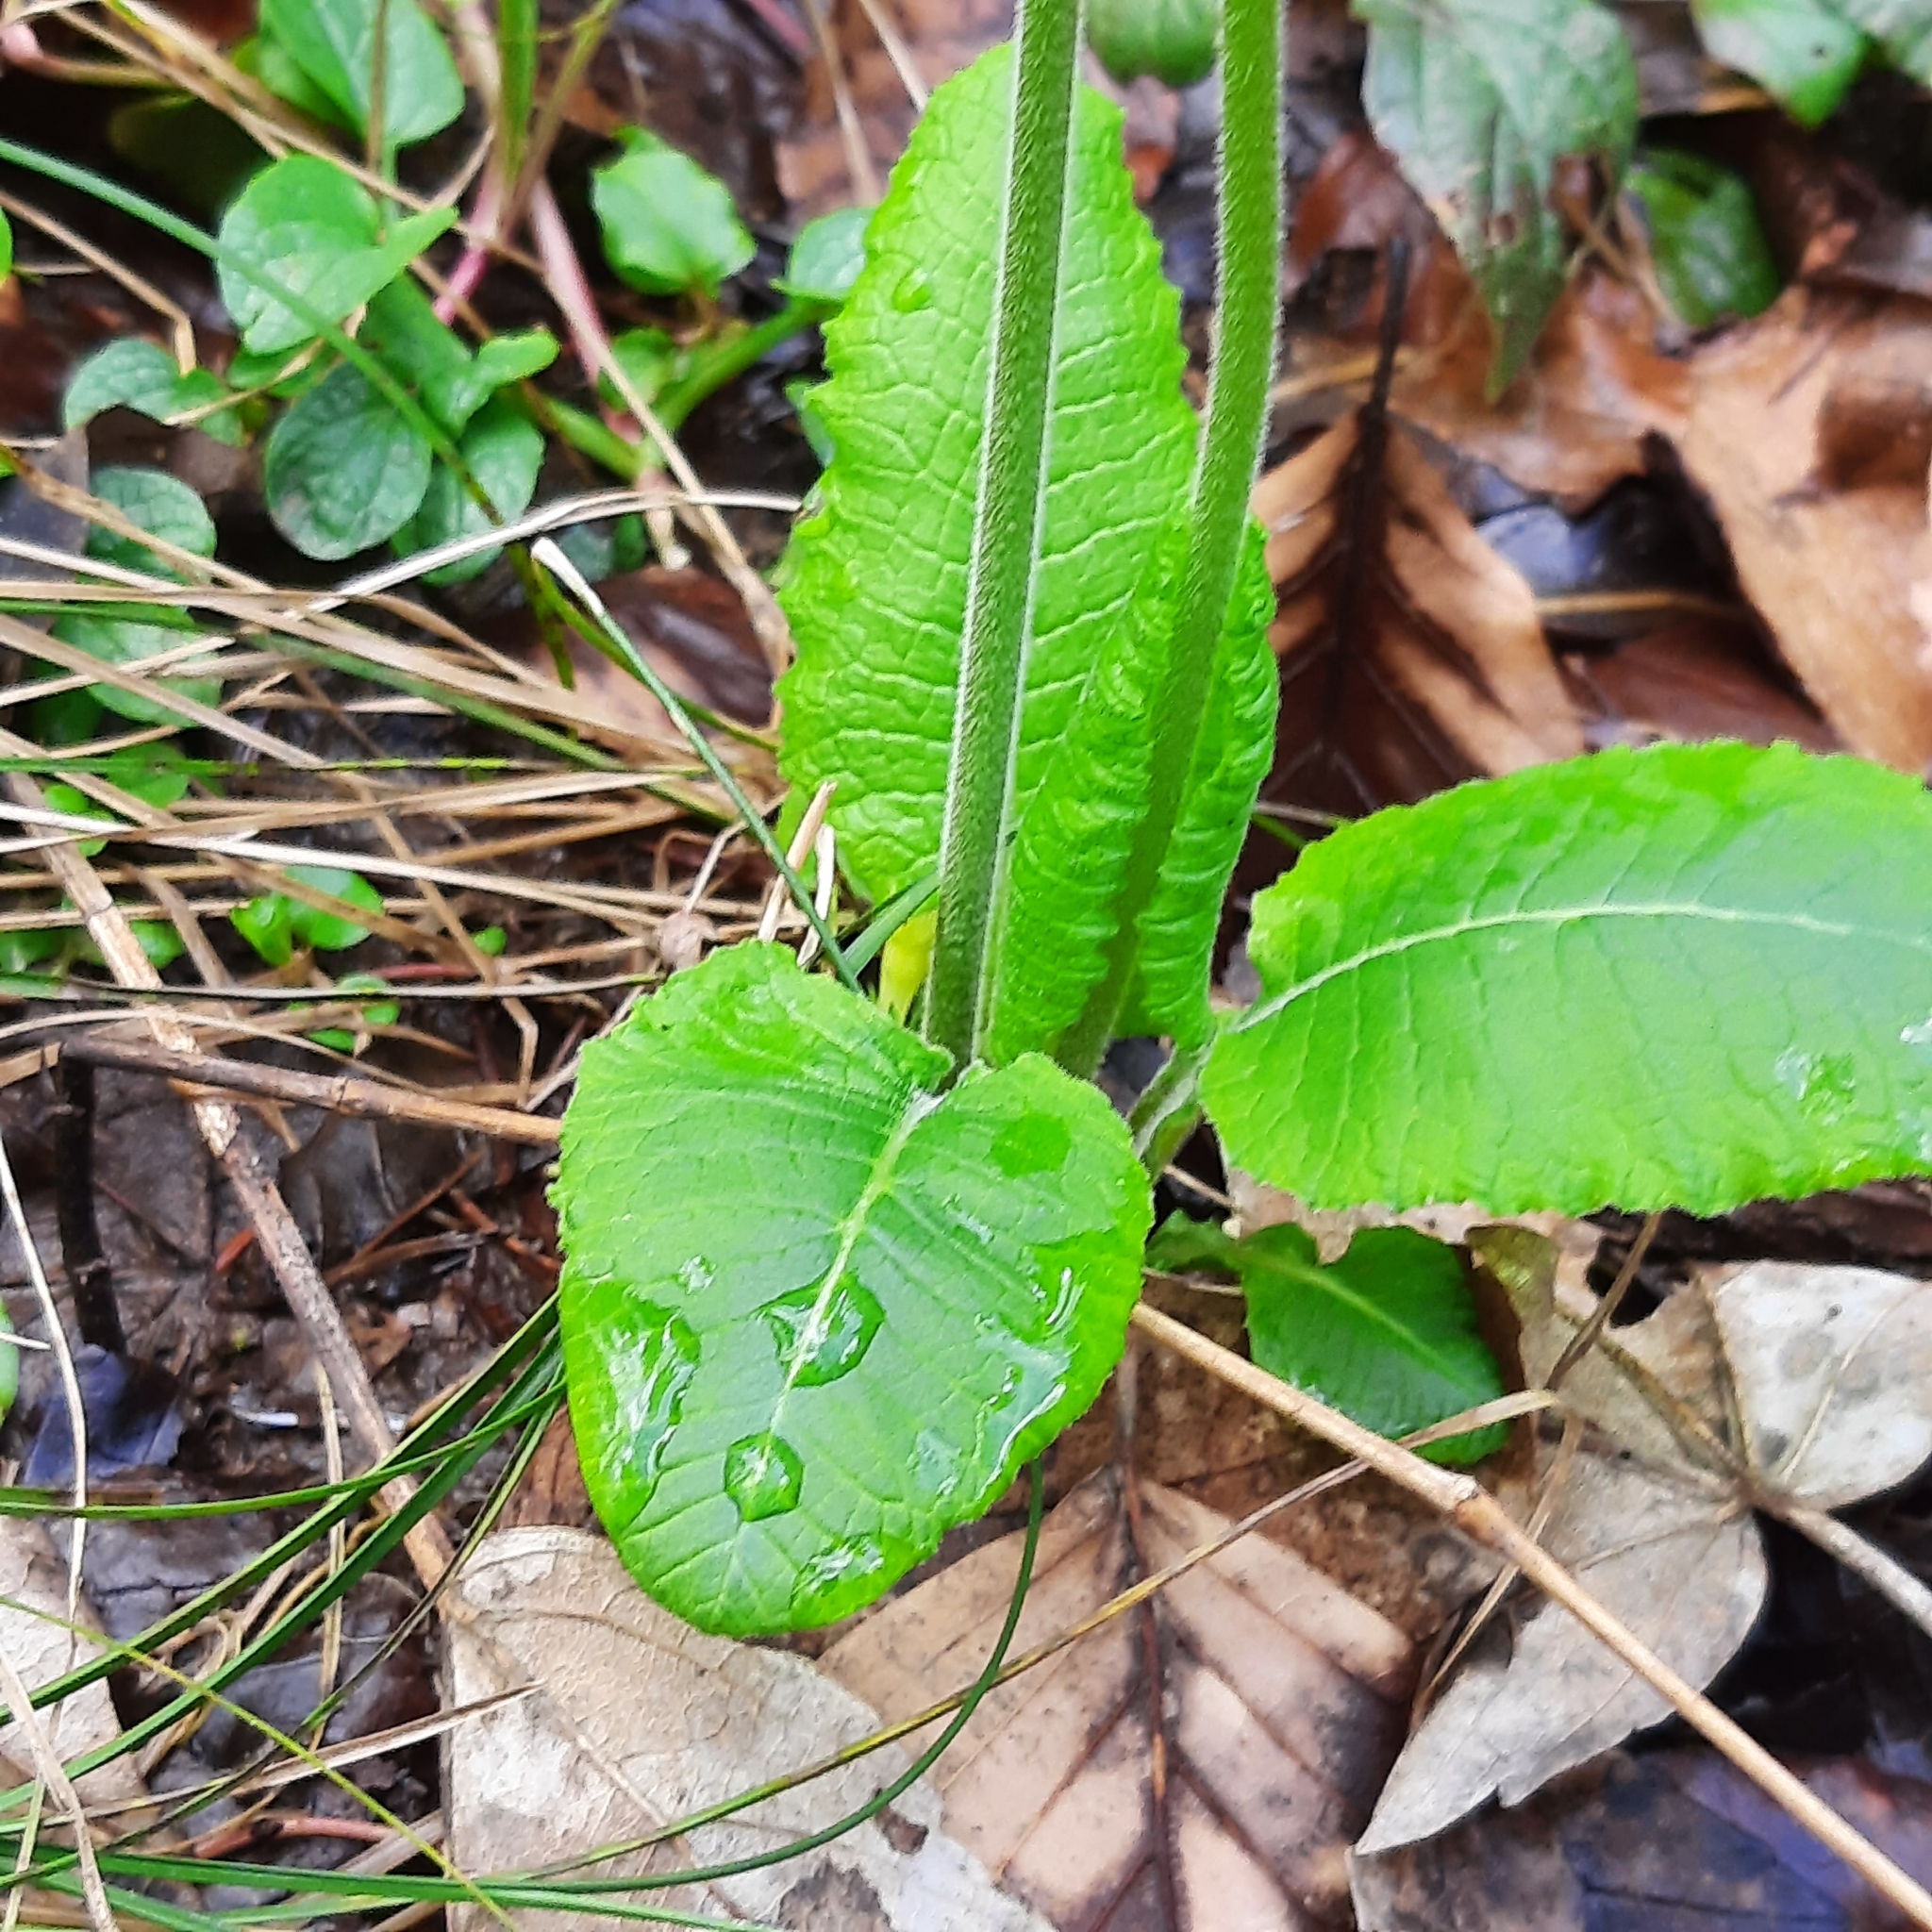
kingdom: Plantae
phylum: Tracheophyta
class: Magnoliopsida
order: Ericales
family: Primulaceae
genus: Primula
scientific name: Primula elatior
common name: Oxlip
